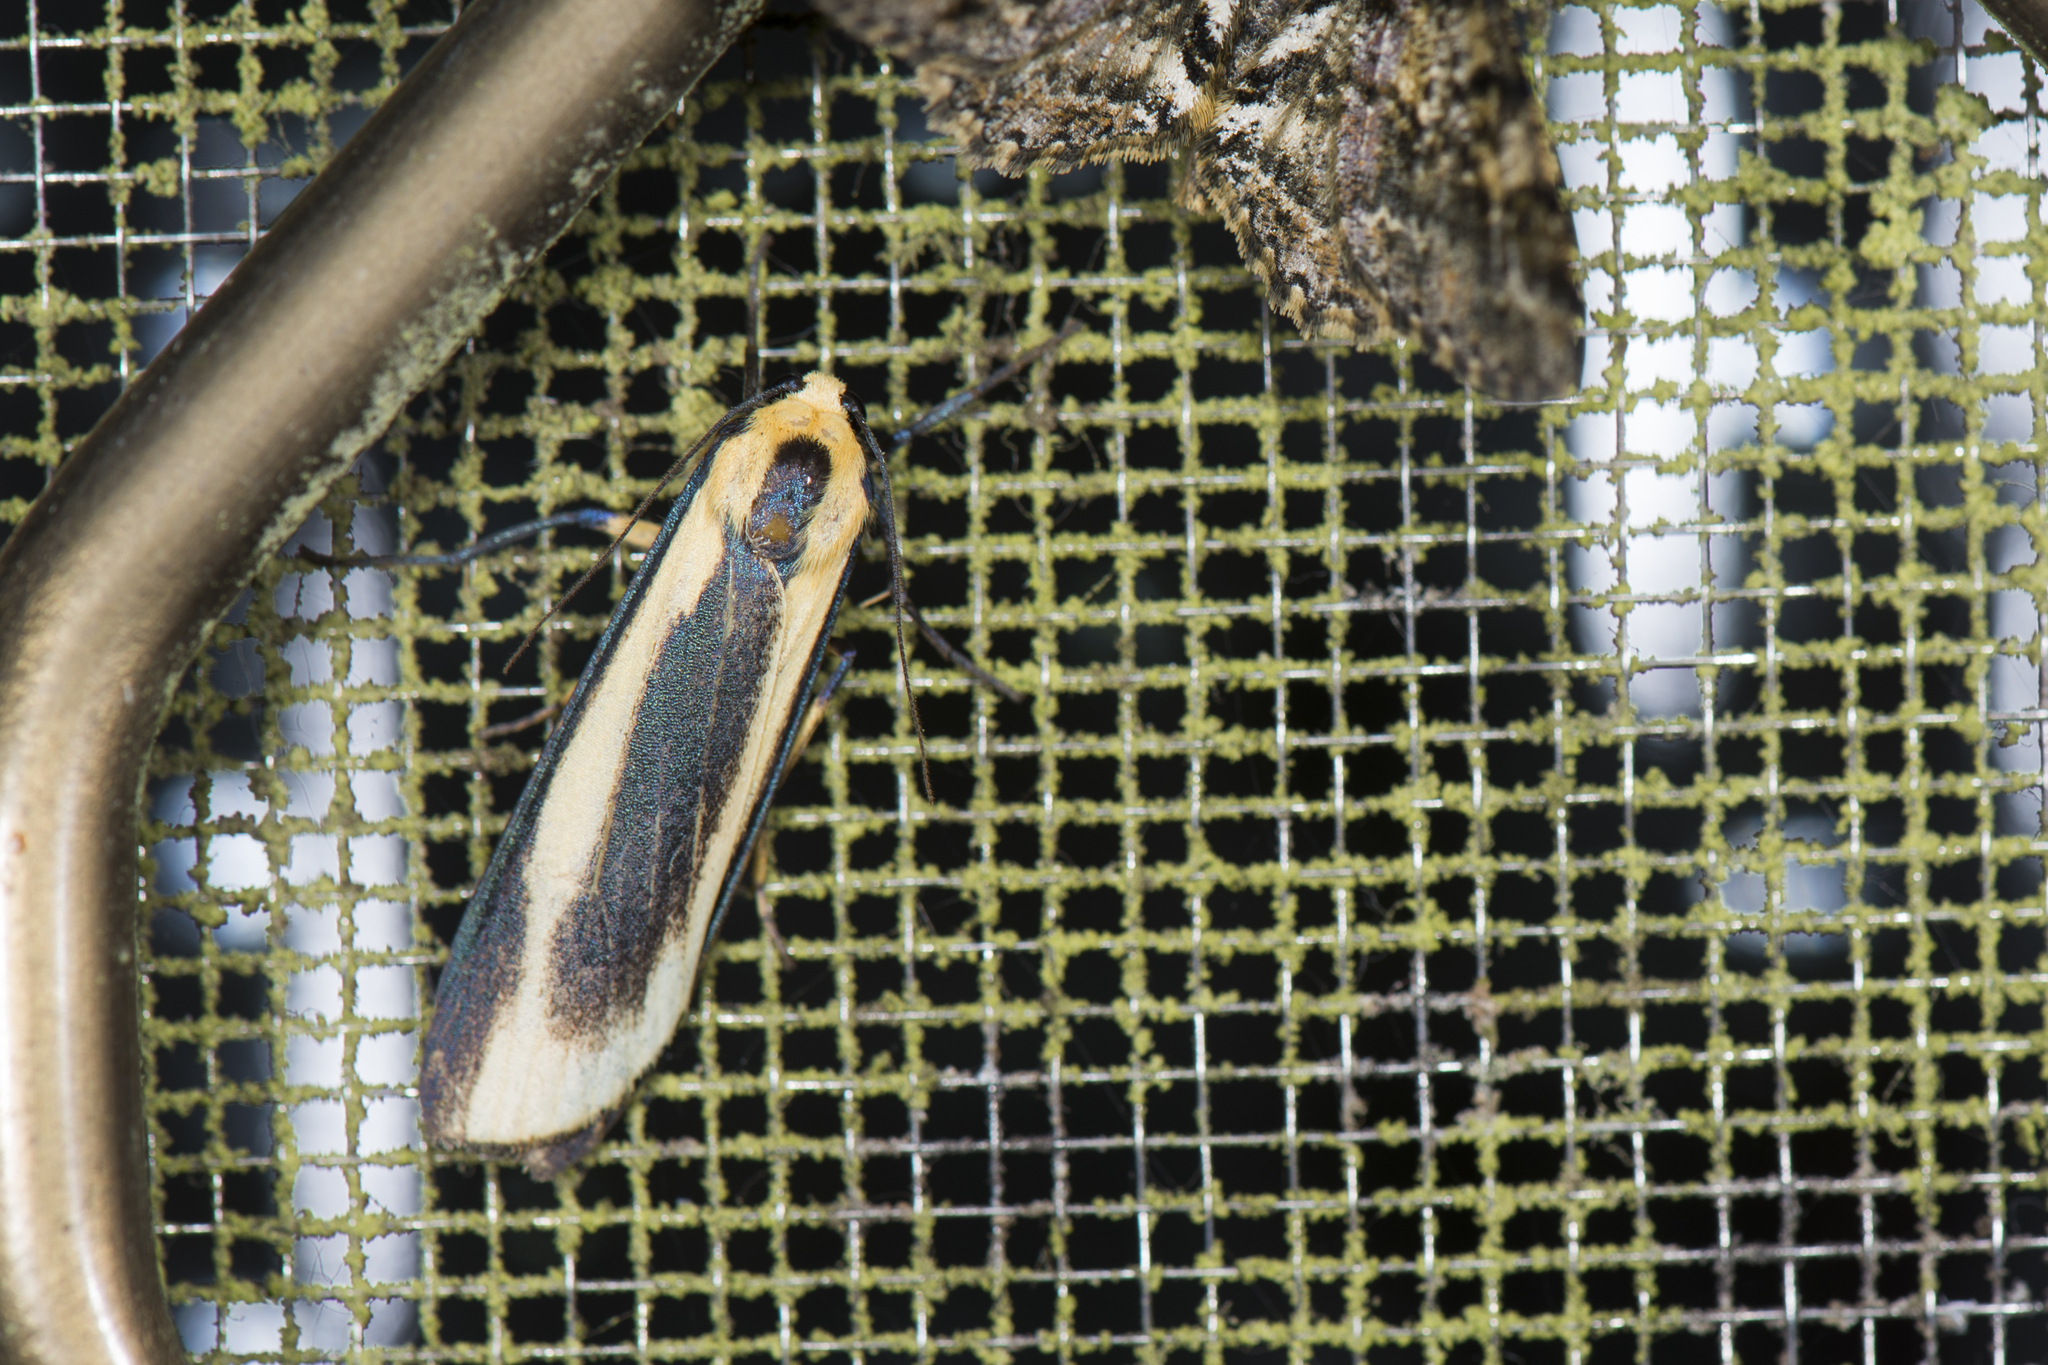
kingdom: Animalia
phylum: Arthropoda
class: Insecta
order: Lepidoptera
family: Erebidae
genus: Chrysorabdia
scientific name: Chrysorabdia taiwana
